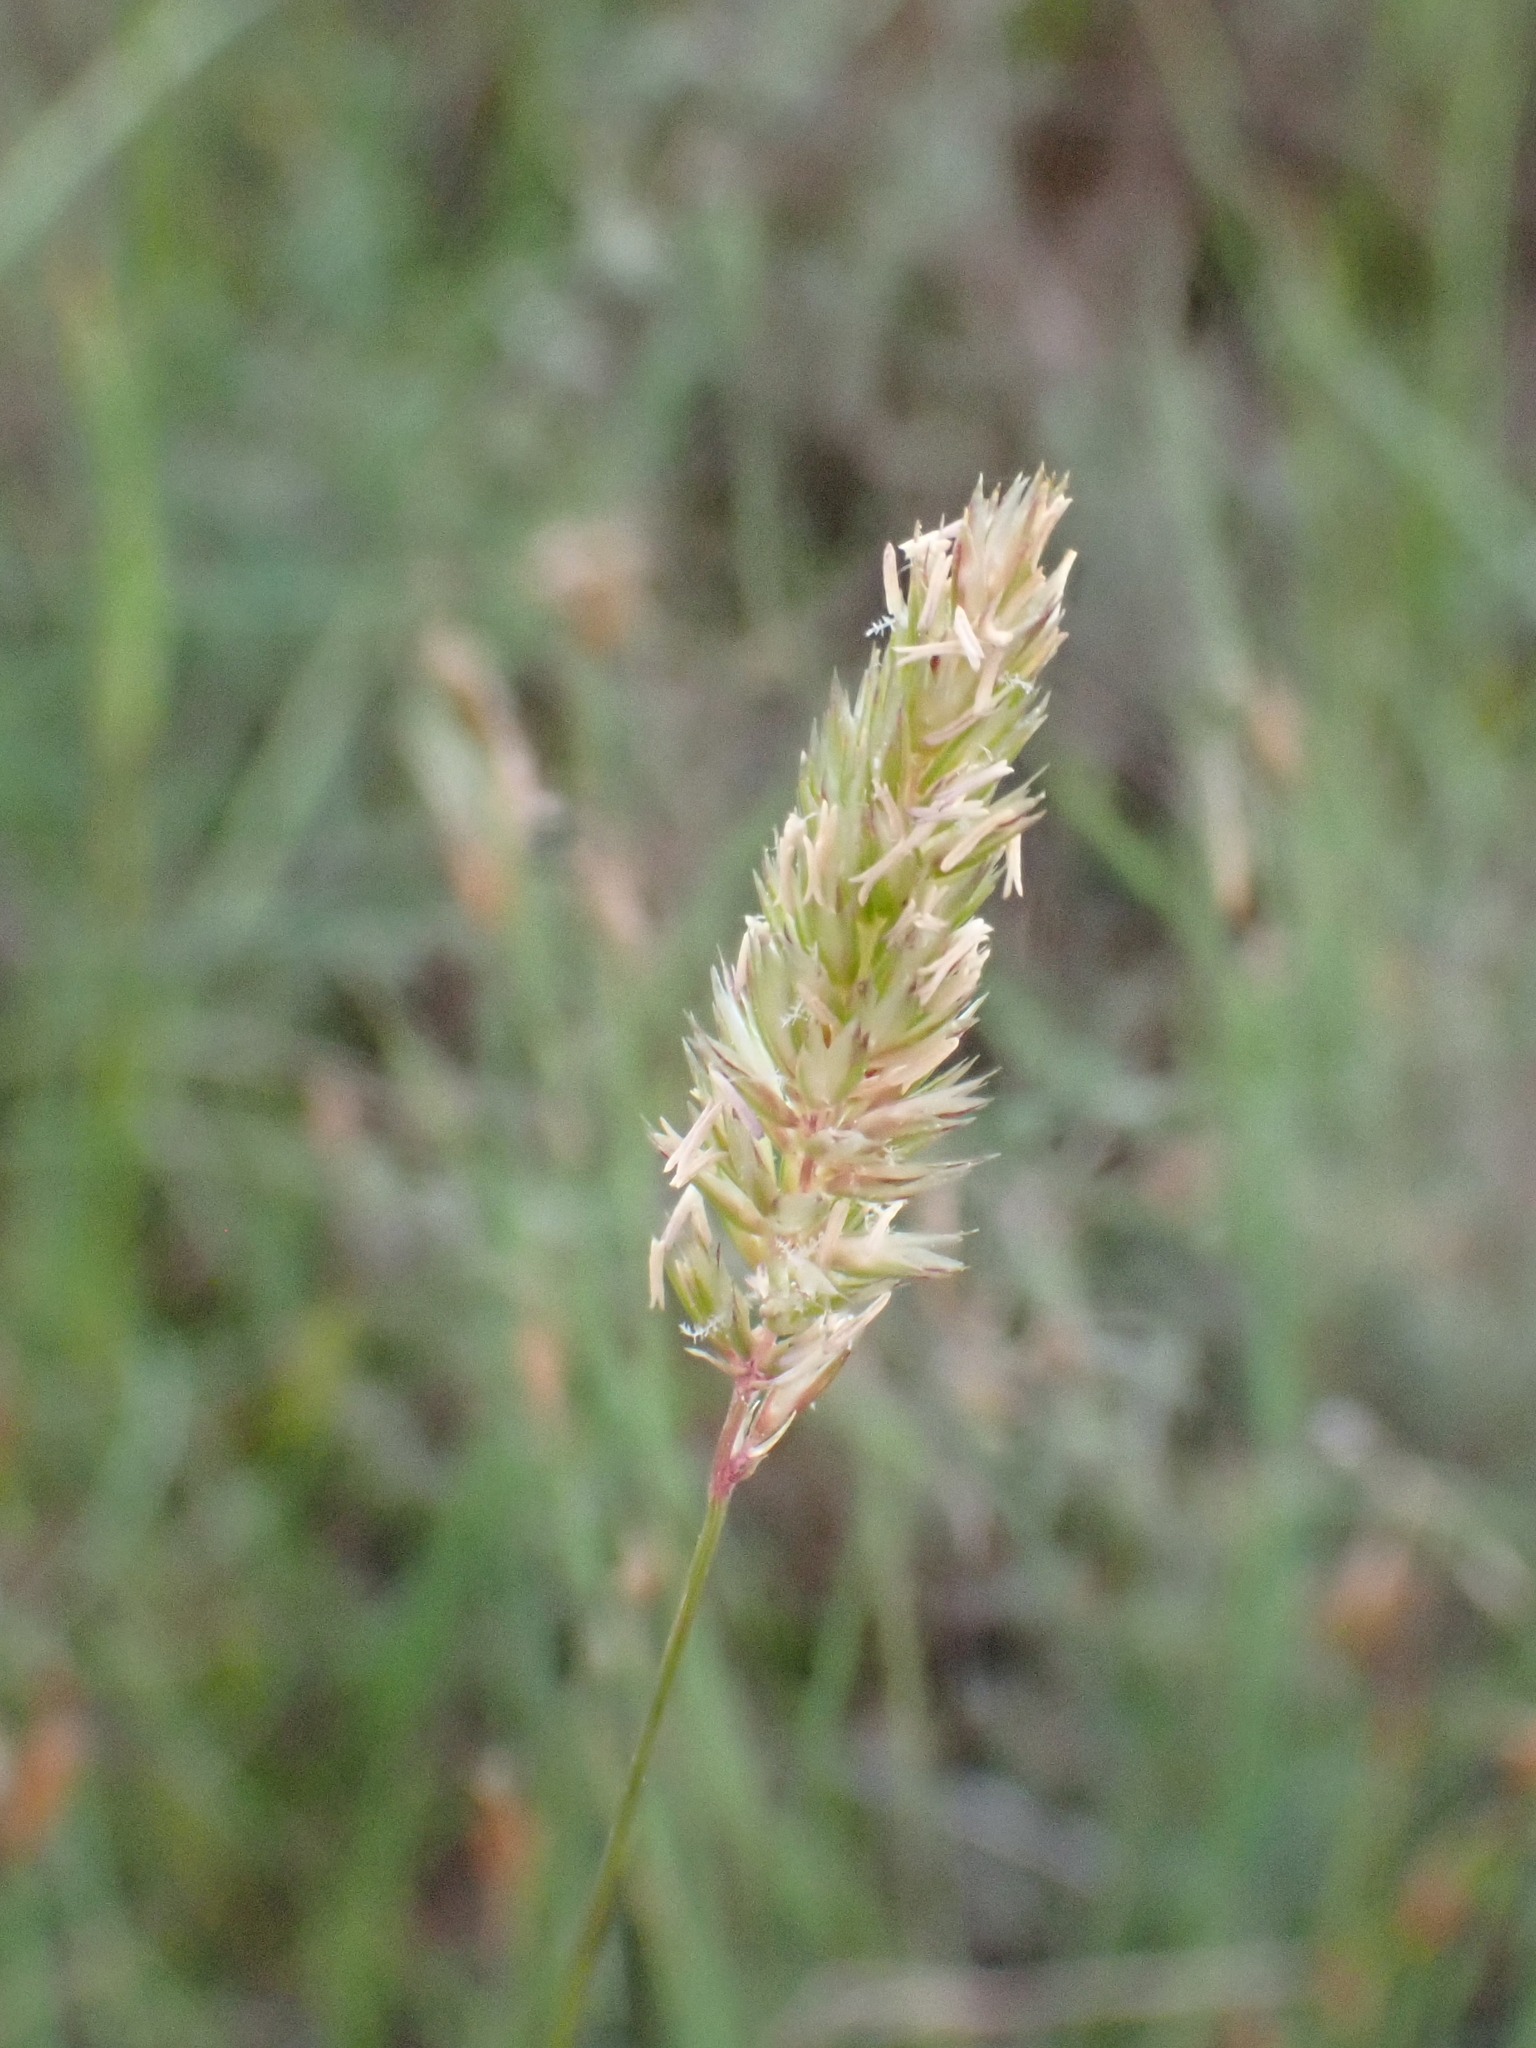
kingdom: Plantae
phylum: Tracheophyta
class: Liliopsida
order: Poales
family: Poaceae
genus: Koeleria
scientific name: Koeleria vallesiana
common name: Somerset hair-grass
